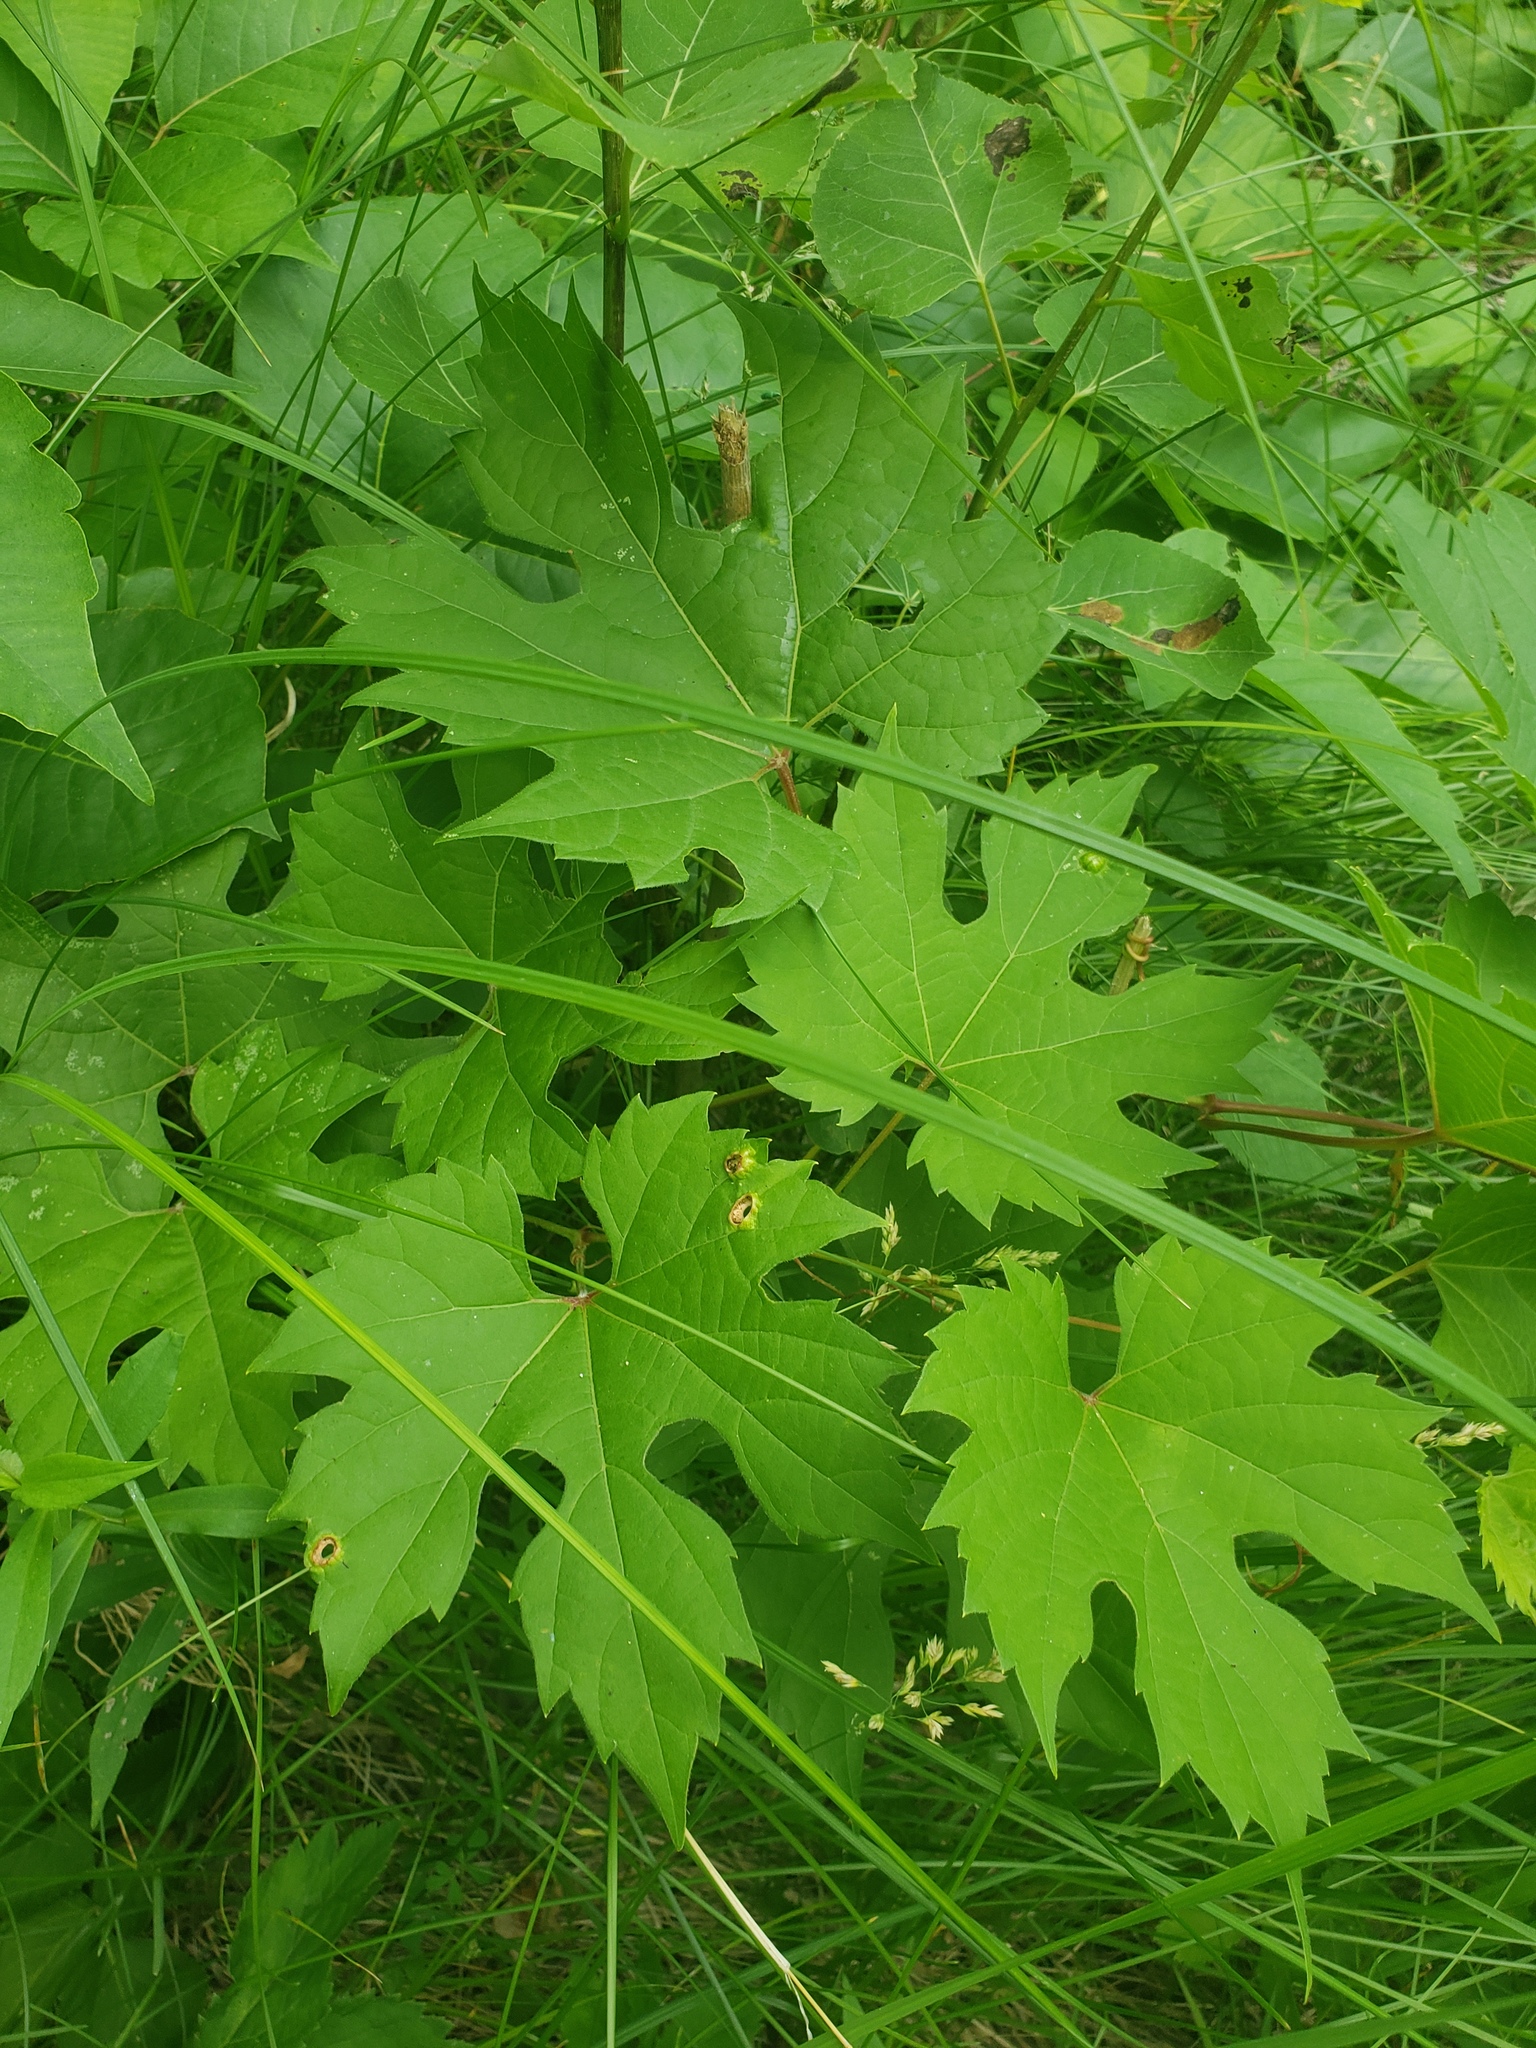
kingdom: Plantae
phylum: Tracheophyta
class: Magnoliopsida
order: Vitales
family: Vitaceae
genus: Vitis
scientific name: Vitis riparia
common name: Frost grape
